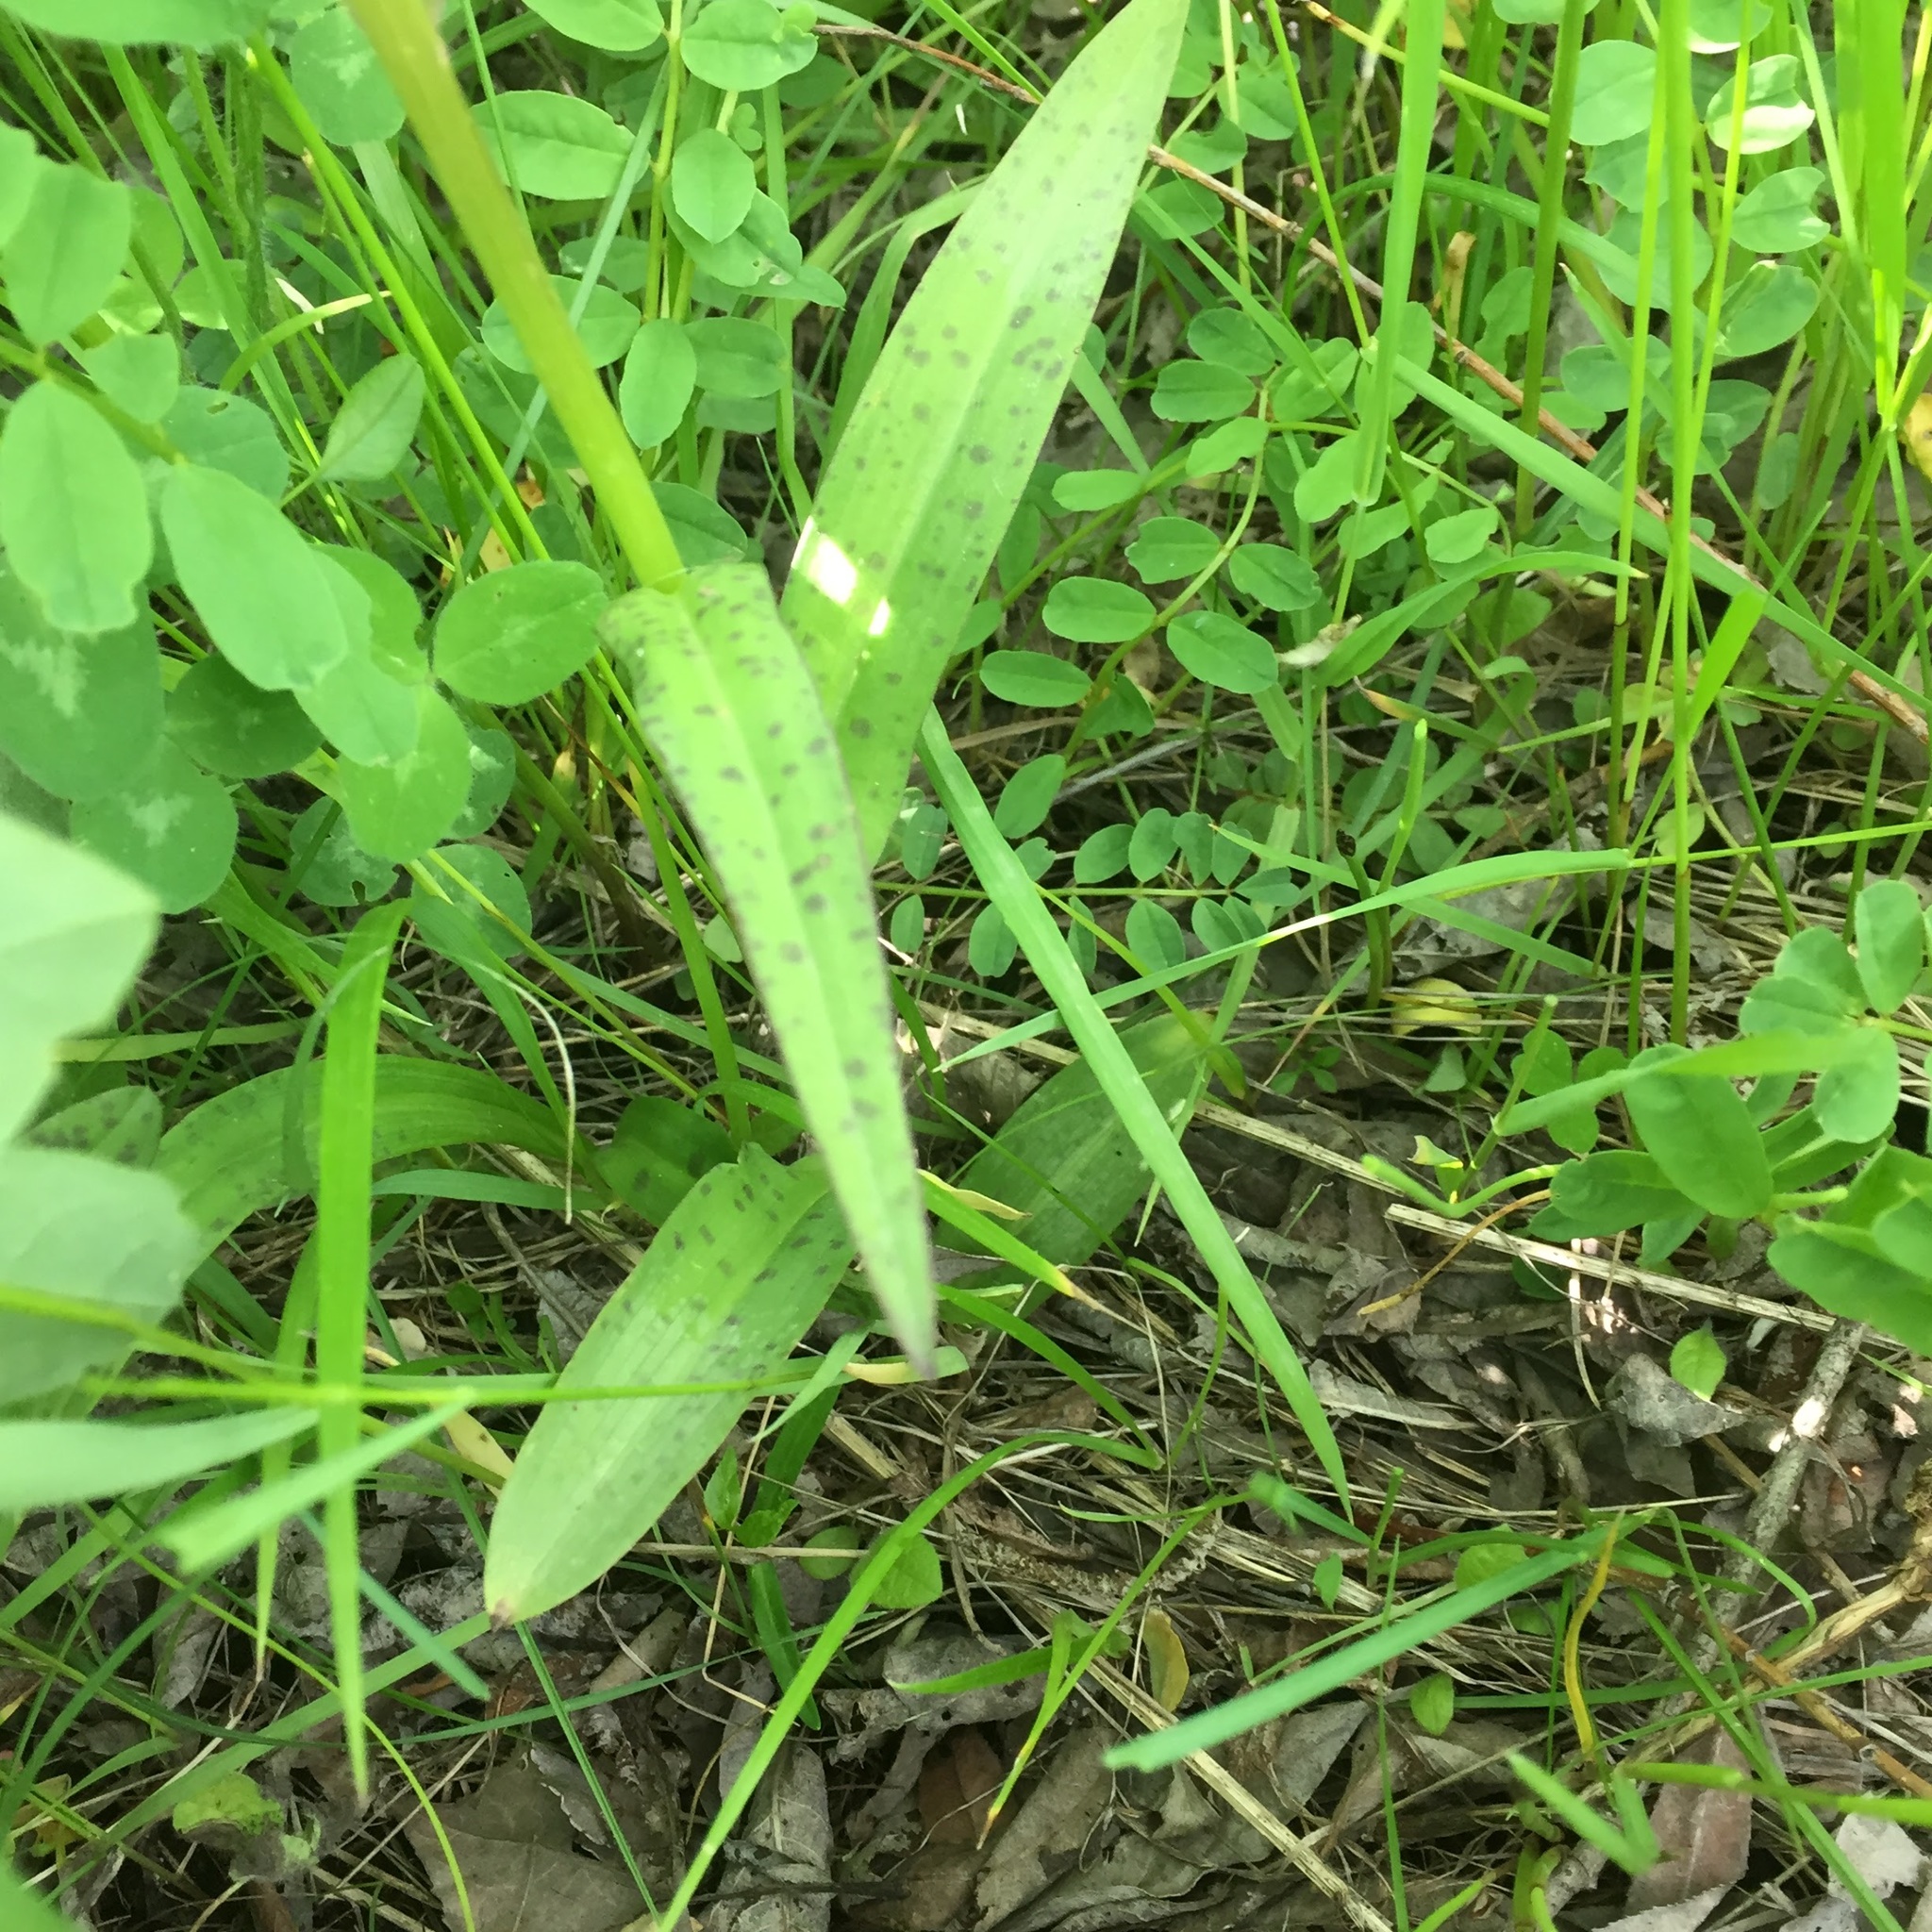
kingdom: Plantae
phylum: Tracheophyta
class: Liliopsida
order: Asparagales
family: Orchidaceae
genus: Dactylorhiza
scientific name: Dactylorhiza maculata
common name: Heath spotted-orchid
